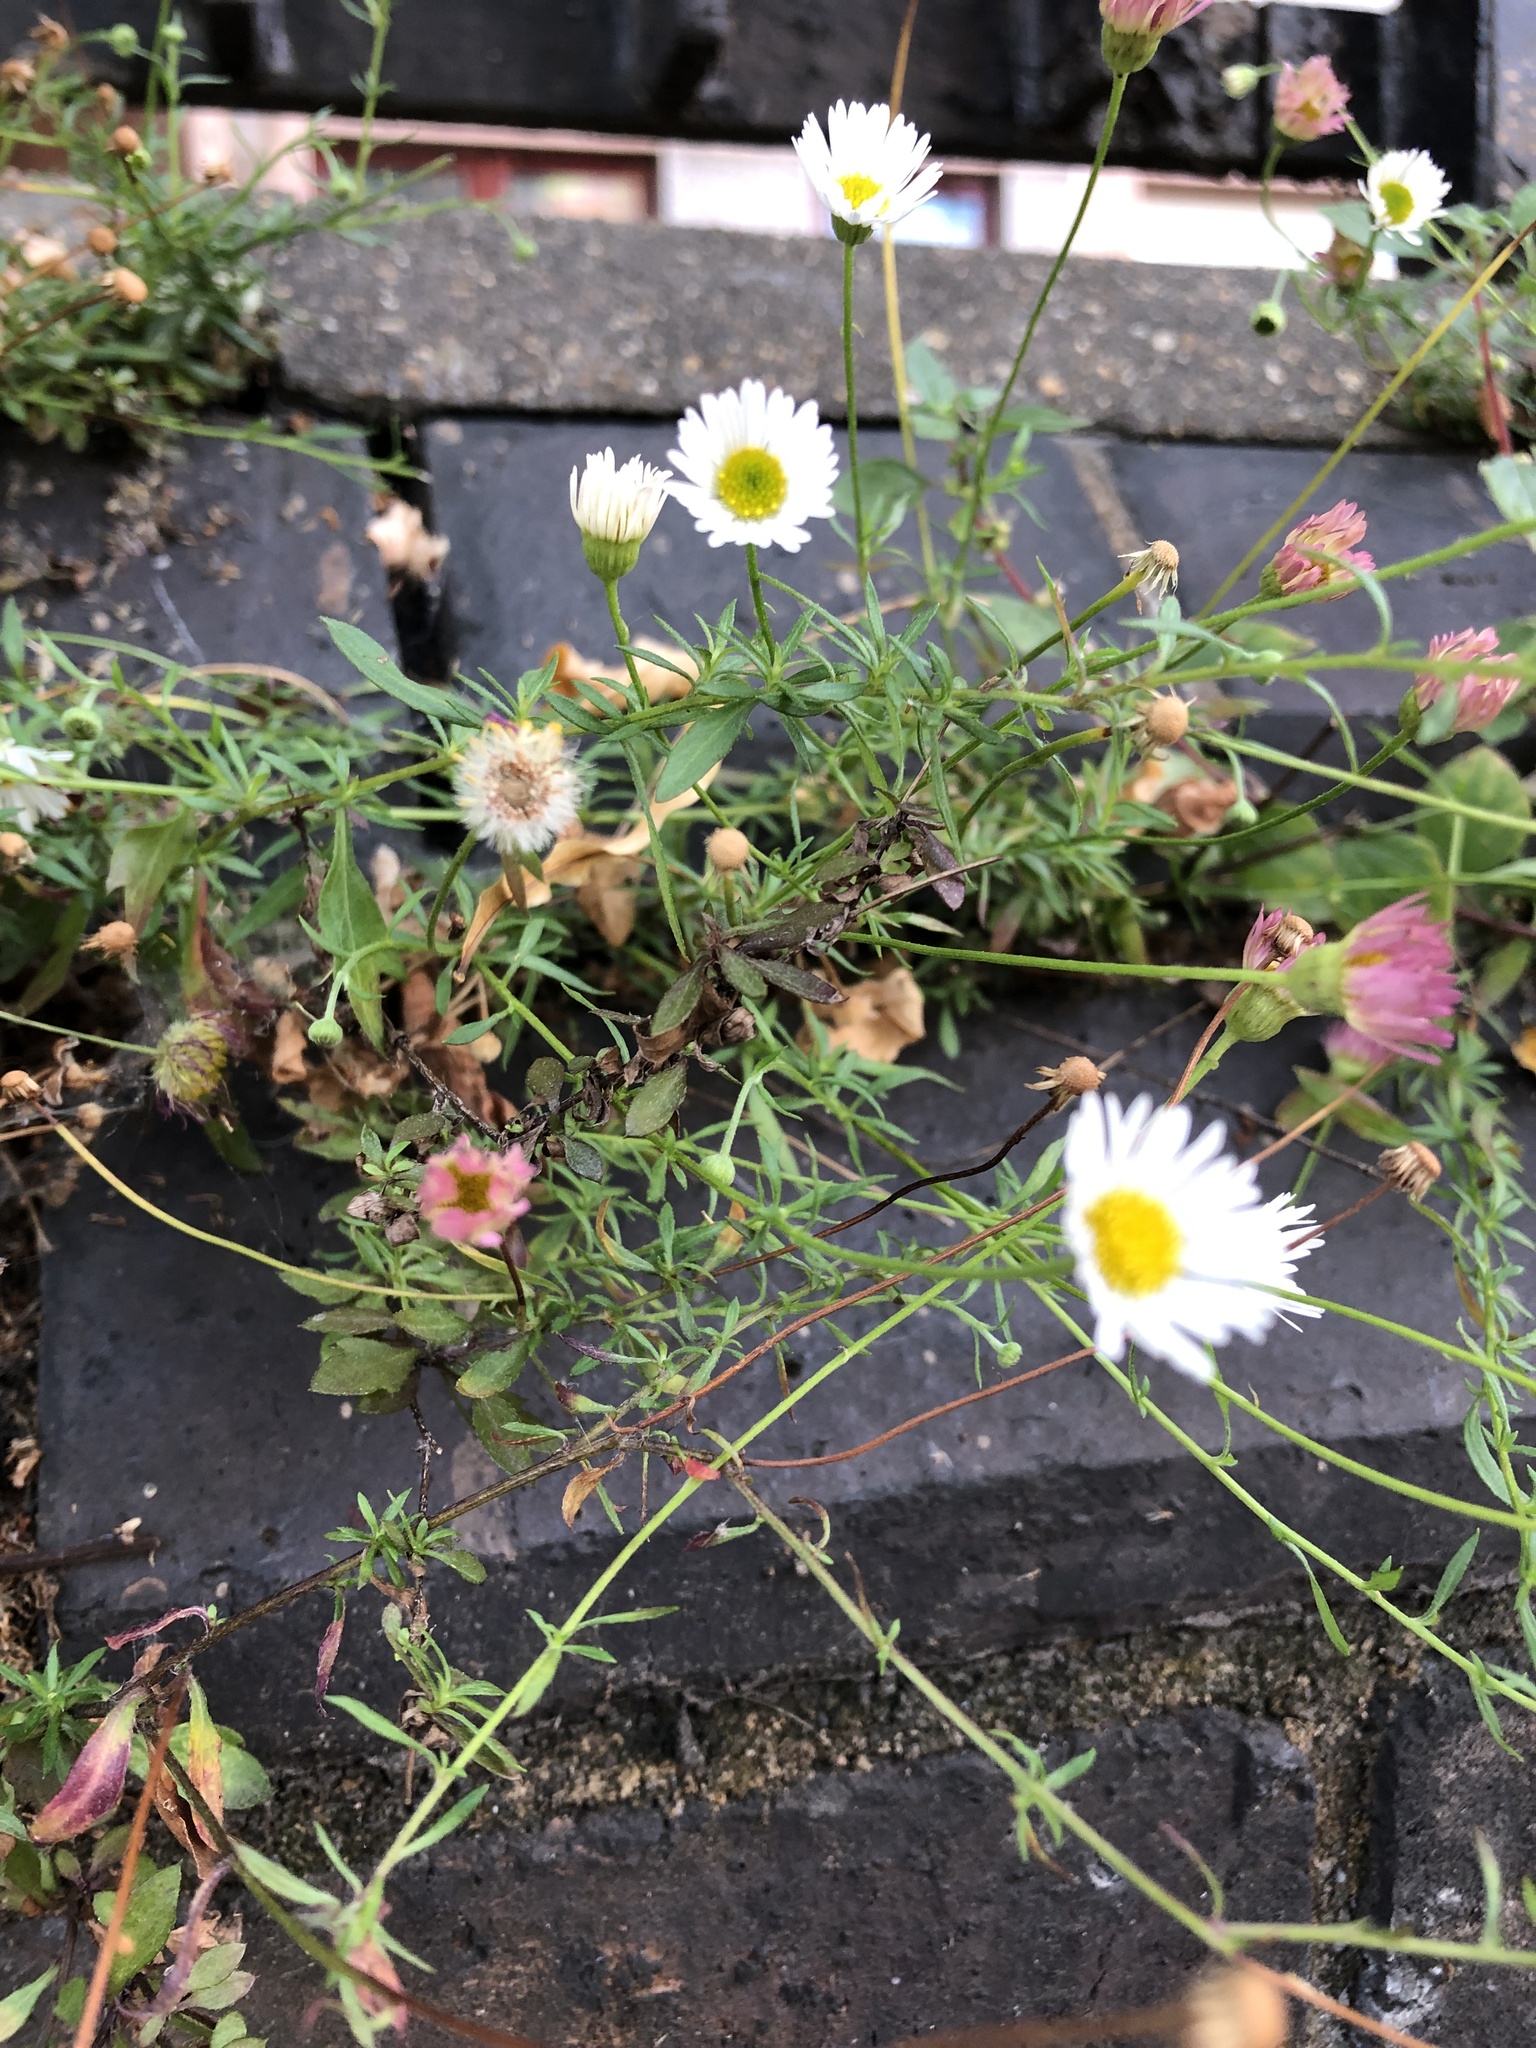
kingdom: Plantae
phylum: Tracheophyta
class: Magnoliopsida
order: Asterales
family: Asteraceae
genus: Erigeron
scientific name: Erigeron karvinskianus
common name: Mexican fleabane
